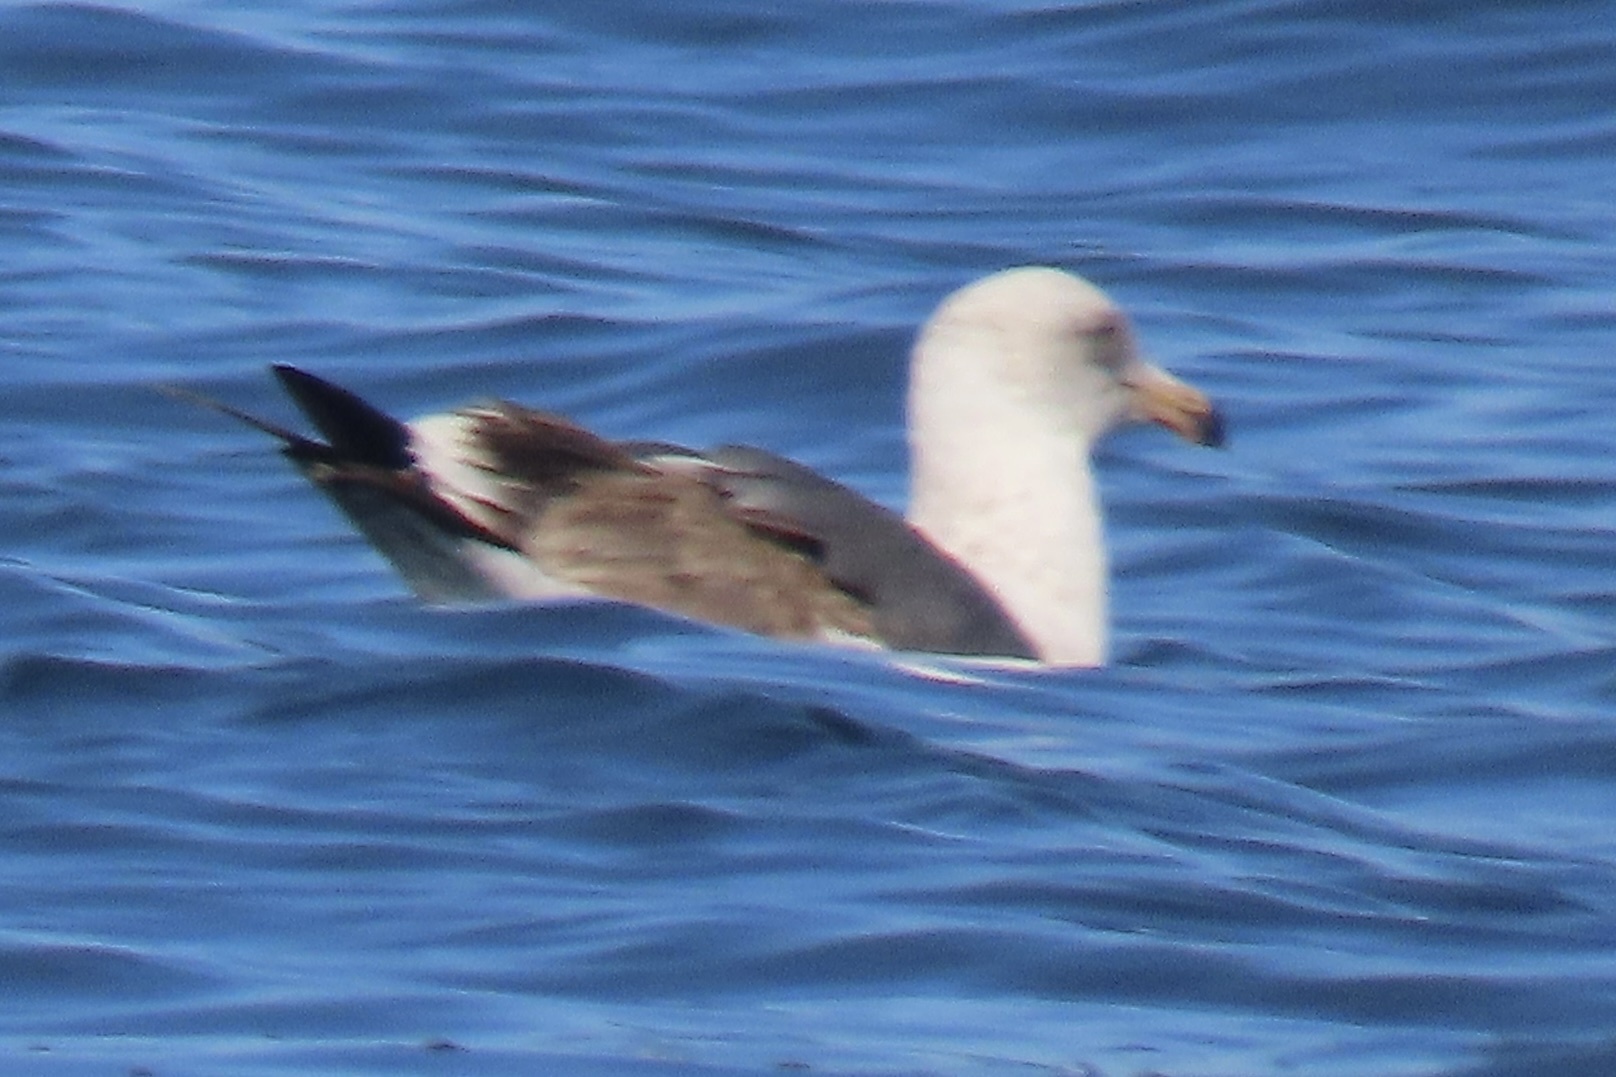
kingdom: Animalia
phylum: Chordata
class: Aves
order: Charadriiformes
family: Laridae
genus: Larus
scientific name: Larus occidentalis
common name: Western gull
